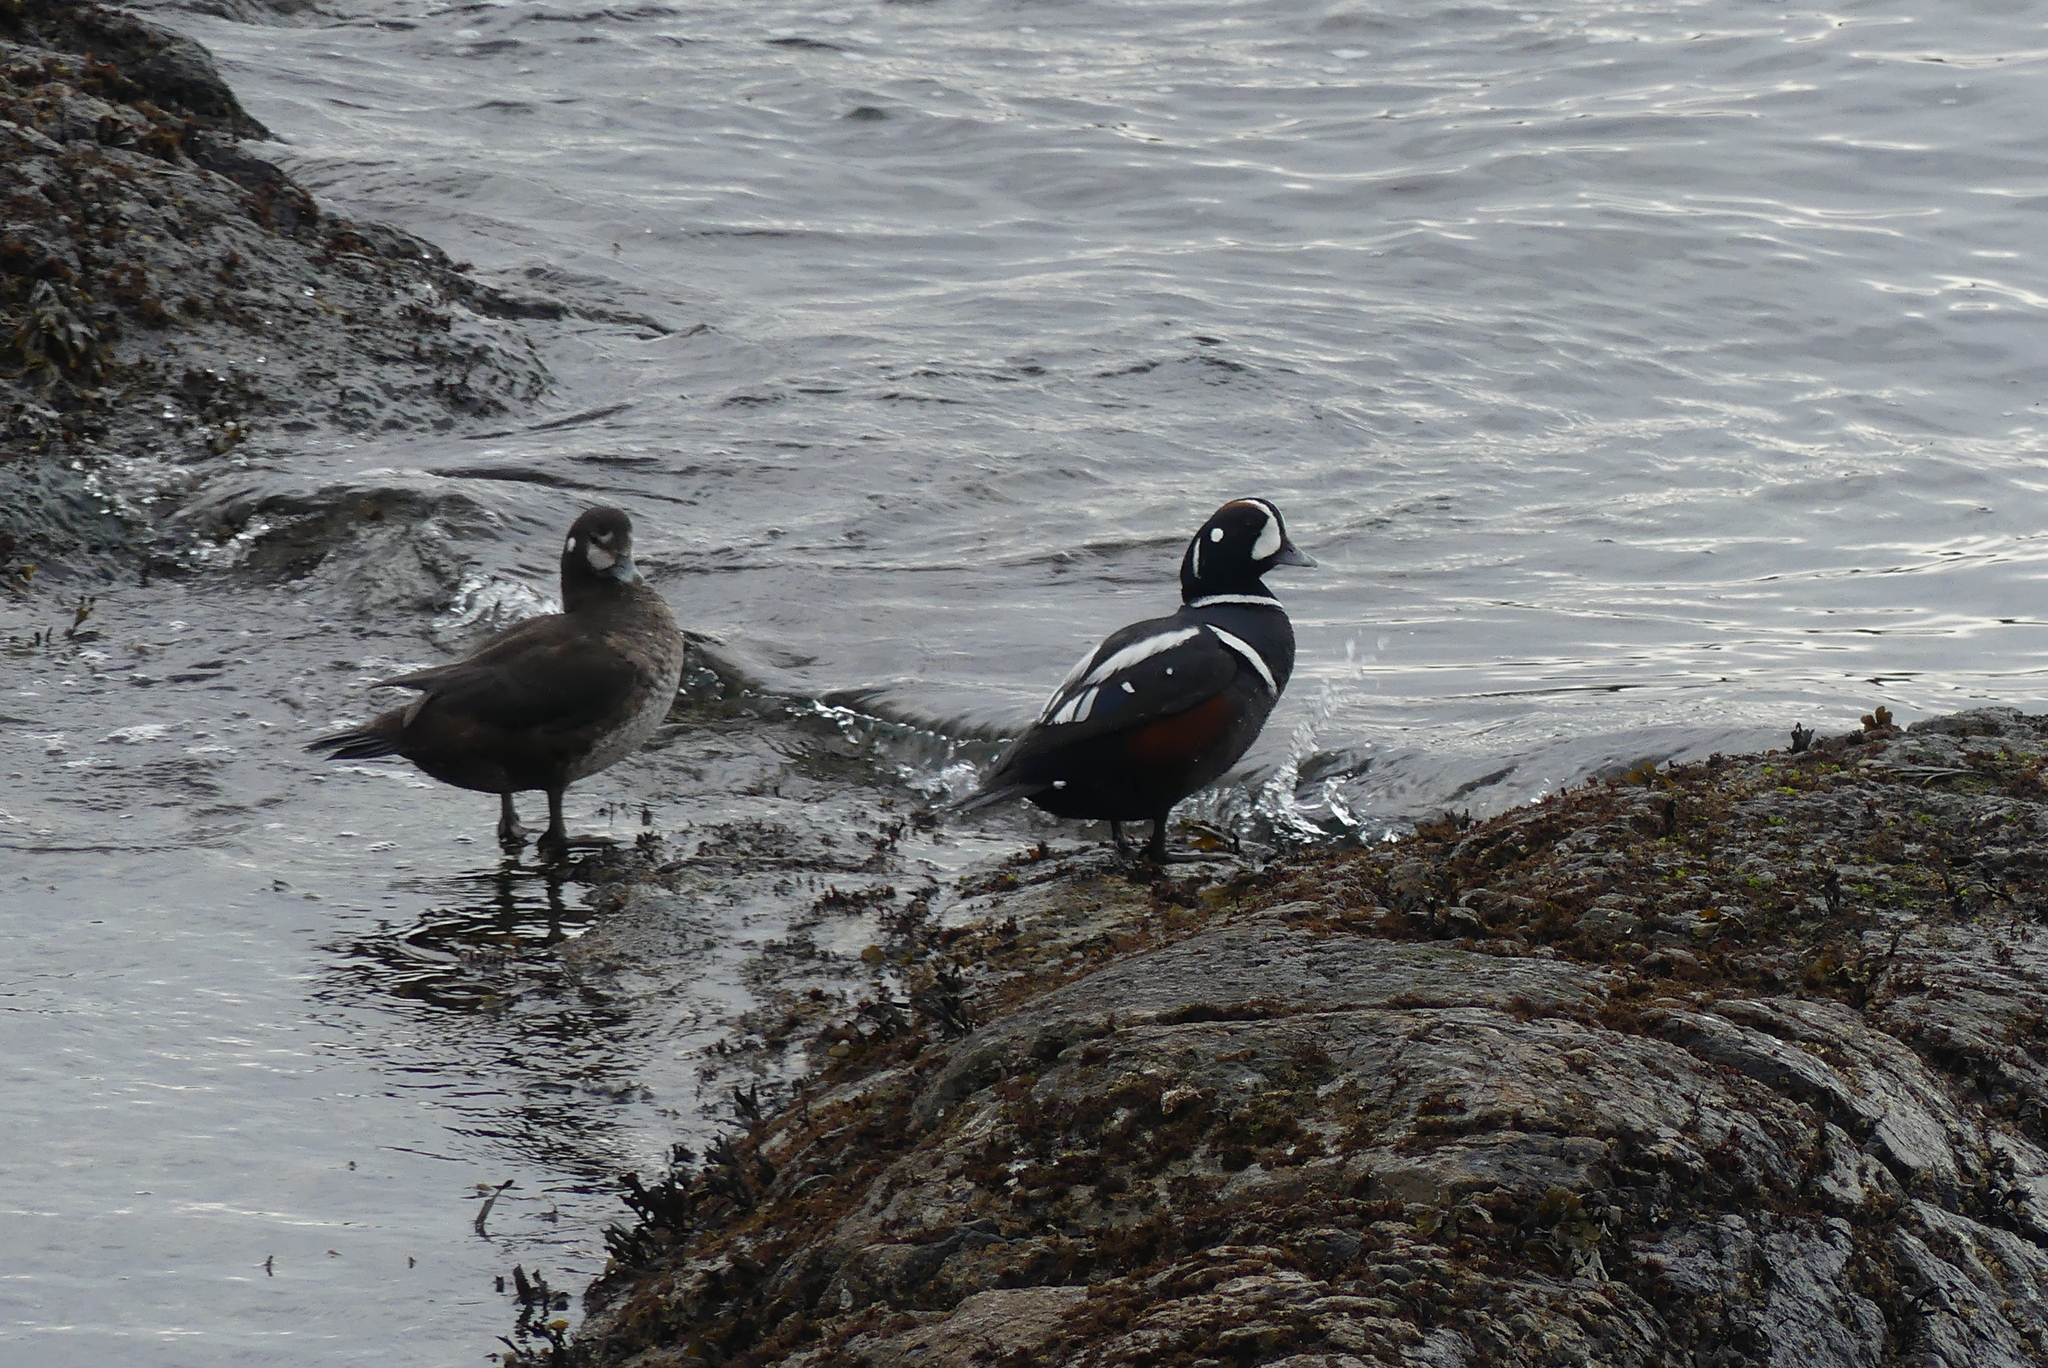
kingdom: Animalia
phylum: Chordata
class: Aves
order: Anseriformes
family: Anatidae
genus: Histrionicus
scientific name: Histrionicus histrionicus
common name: Harlequin duck
